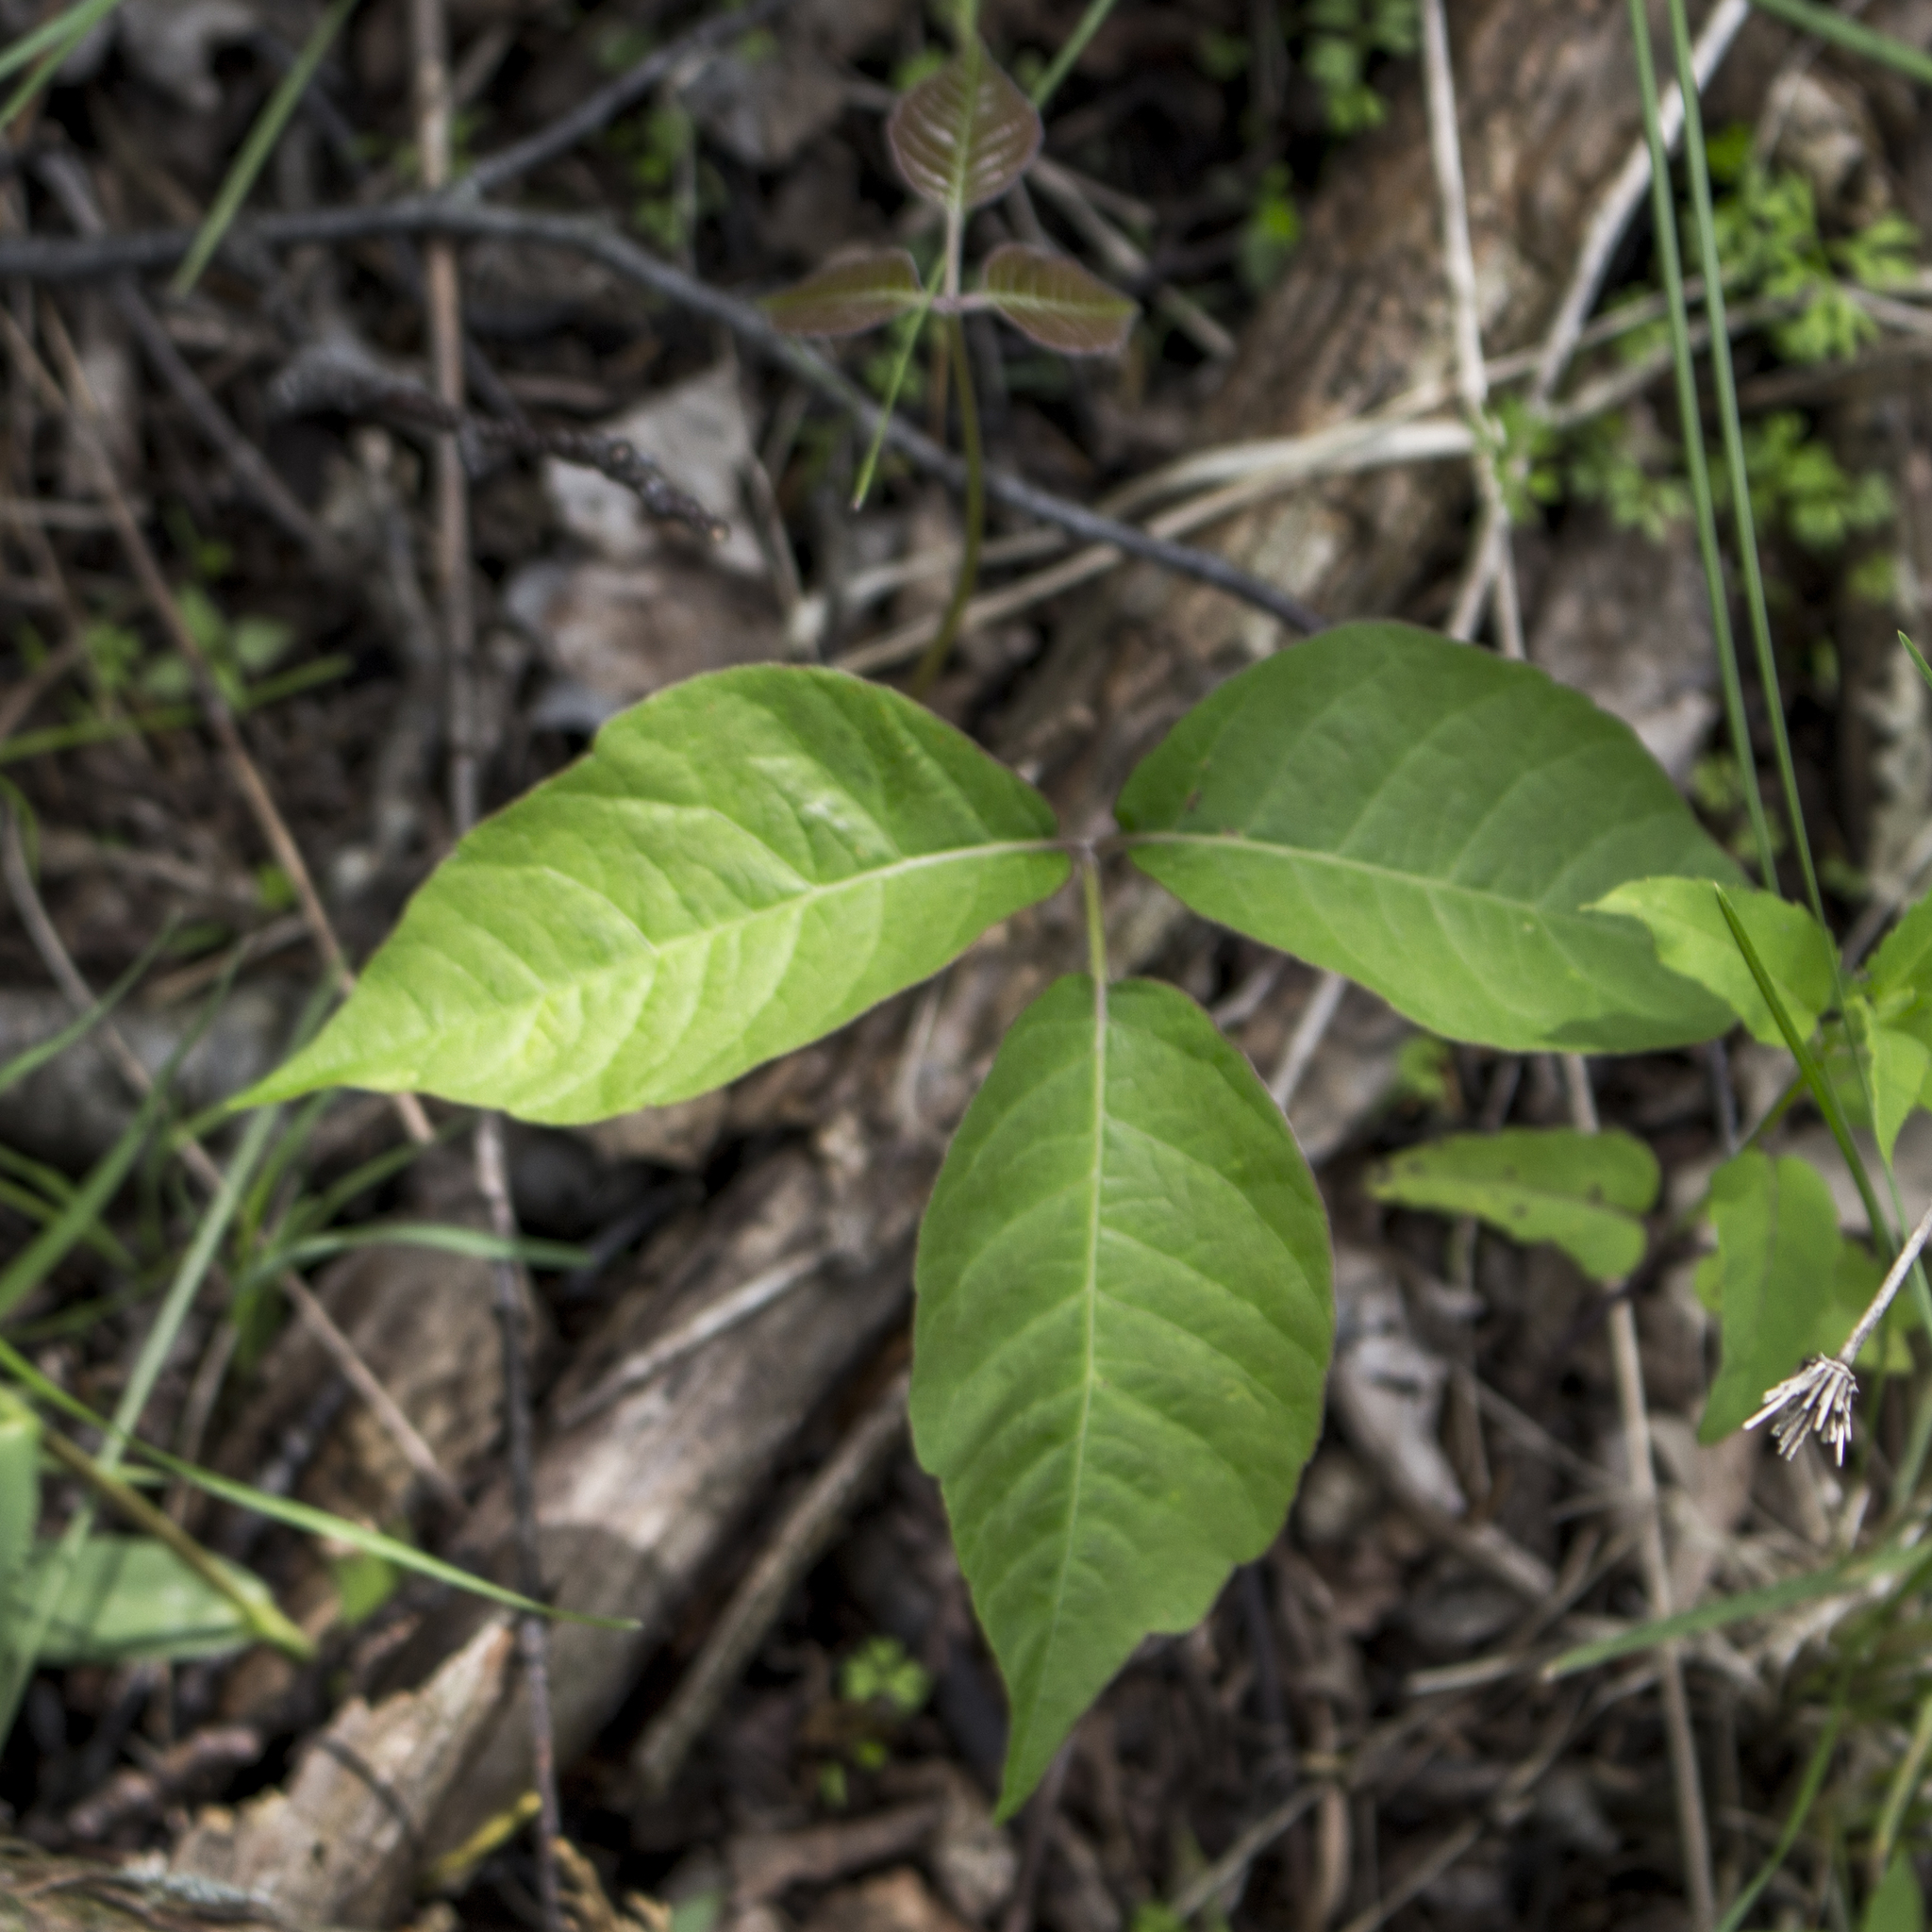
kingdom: Plantae
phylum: Tracheophyta
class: Magnoliopsida
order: Sapindales
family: Anacardiaceae
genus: Toxicodendron
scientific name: Toxicodendron rydbergii
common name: Rydberg's poison-ivy
